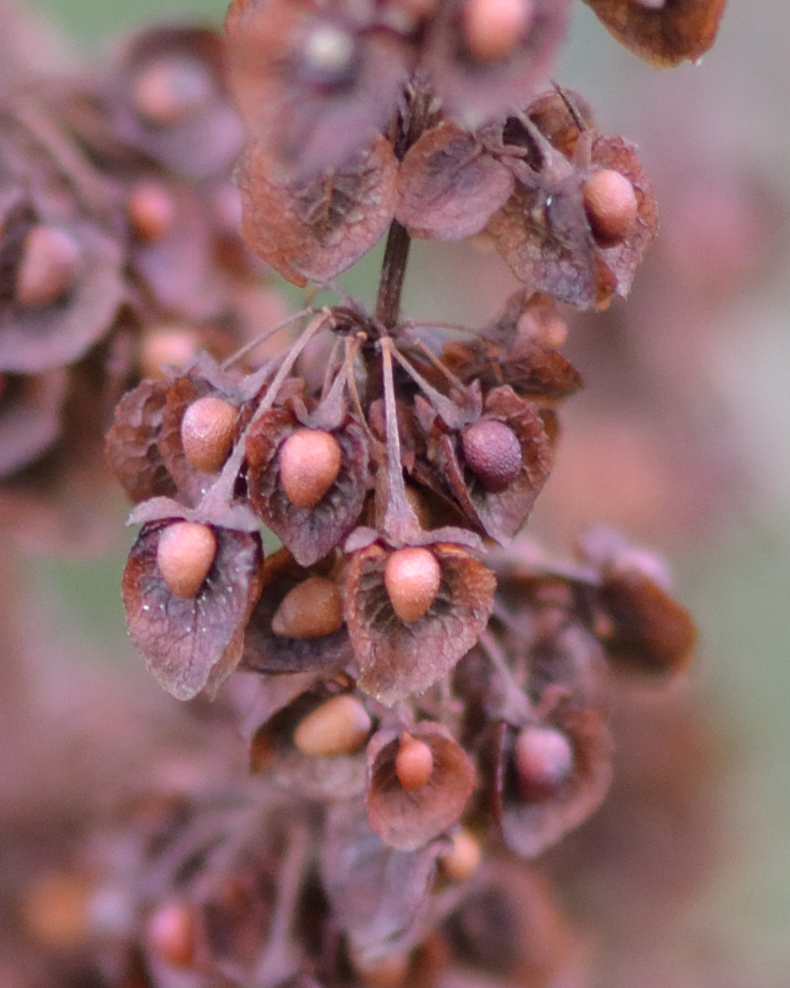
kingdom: Plantae
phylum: Tracheophyta
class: Magnoliopsida
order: Caryophyllales
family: Polygonaceae
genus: Rumex
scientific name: Rumex crispus
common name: Curled dock
